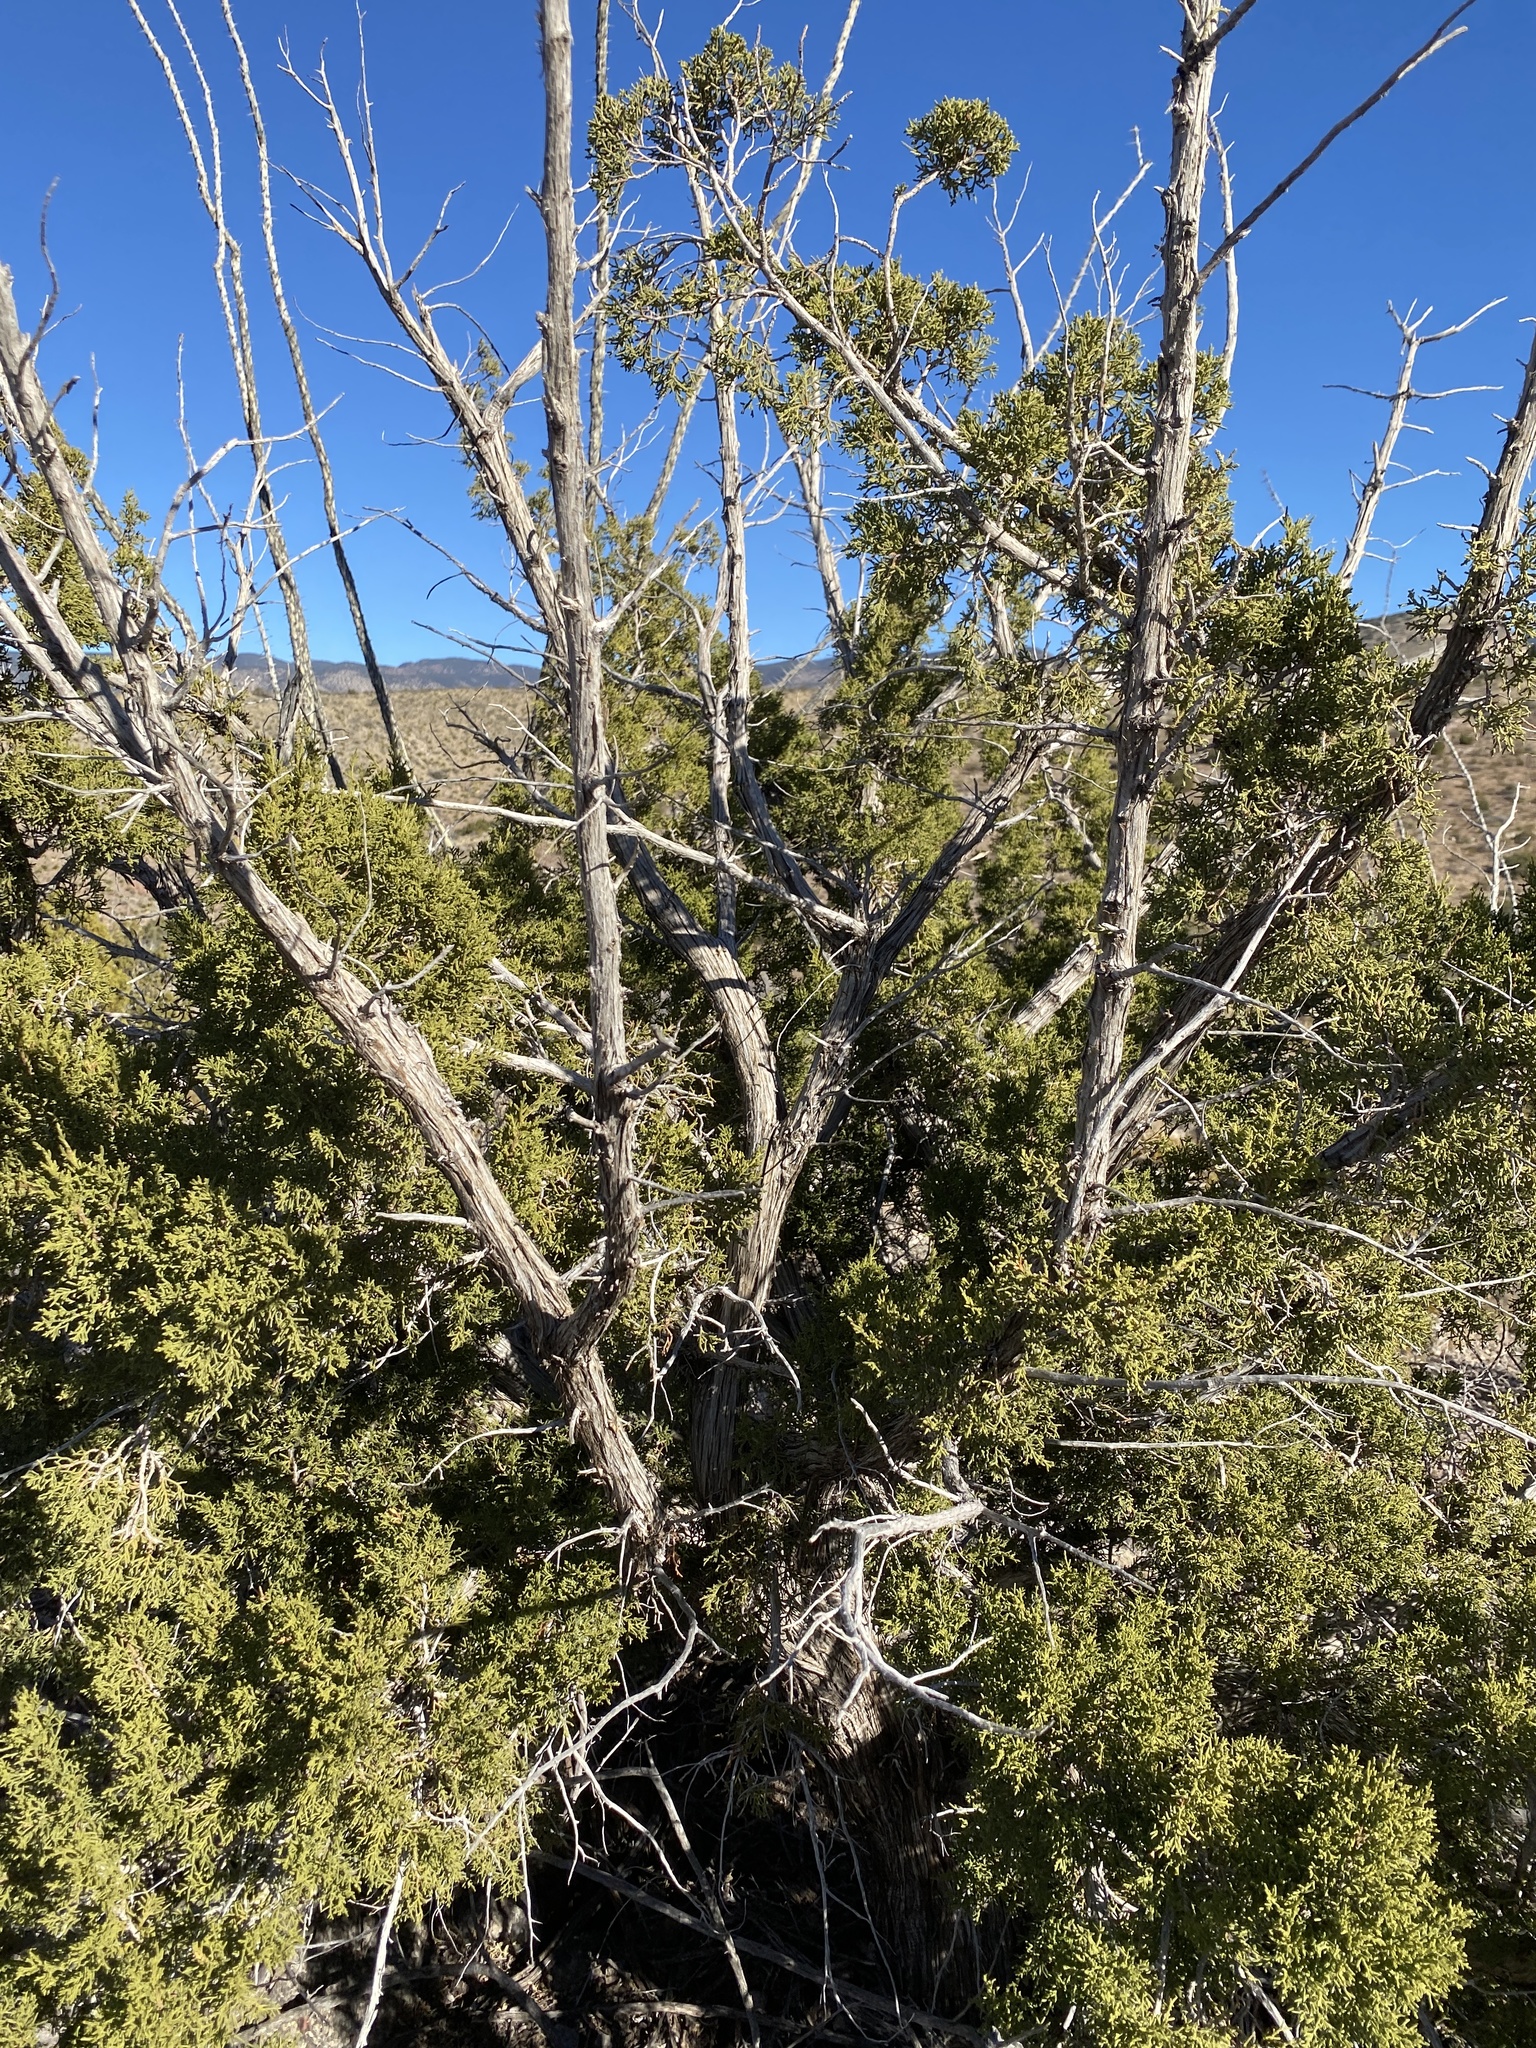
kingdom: Plantae
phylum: Tracheophyta
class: Pinopsida
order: Pinales
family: Cupressaceae
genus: Juniperus
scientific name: Juniperus monosperma
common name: One-seed juniper
